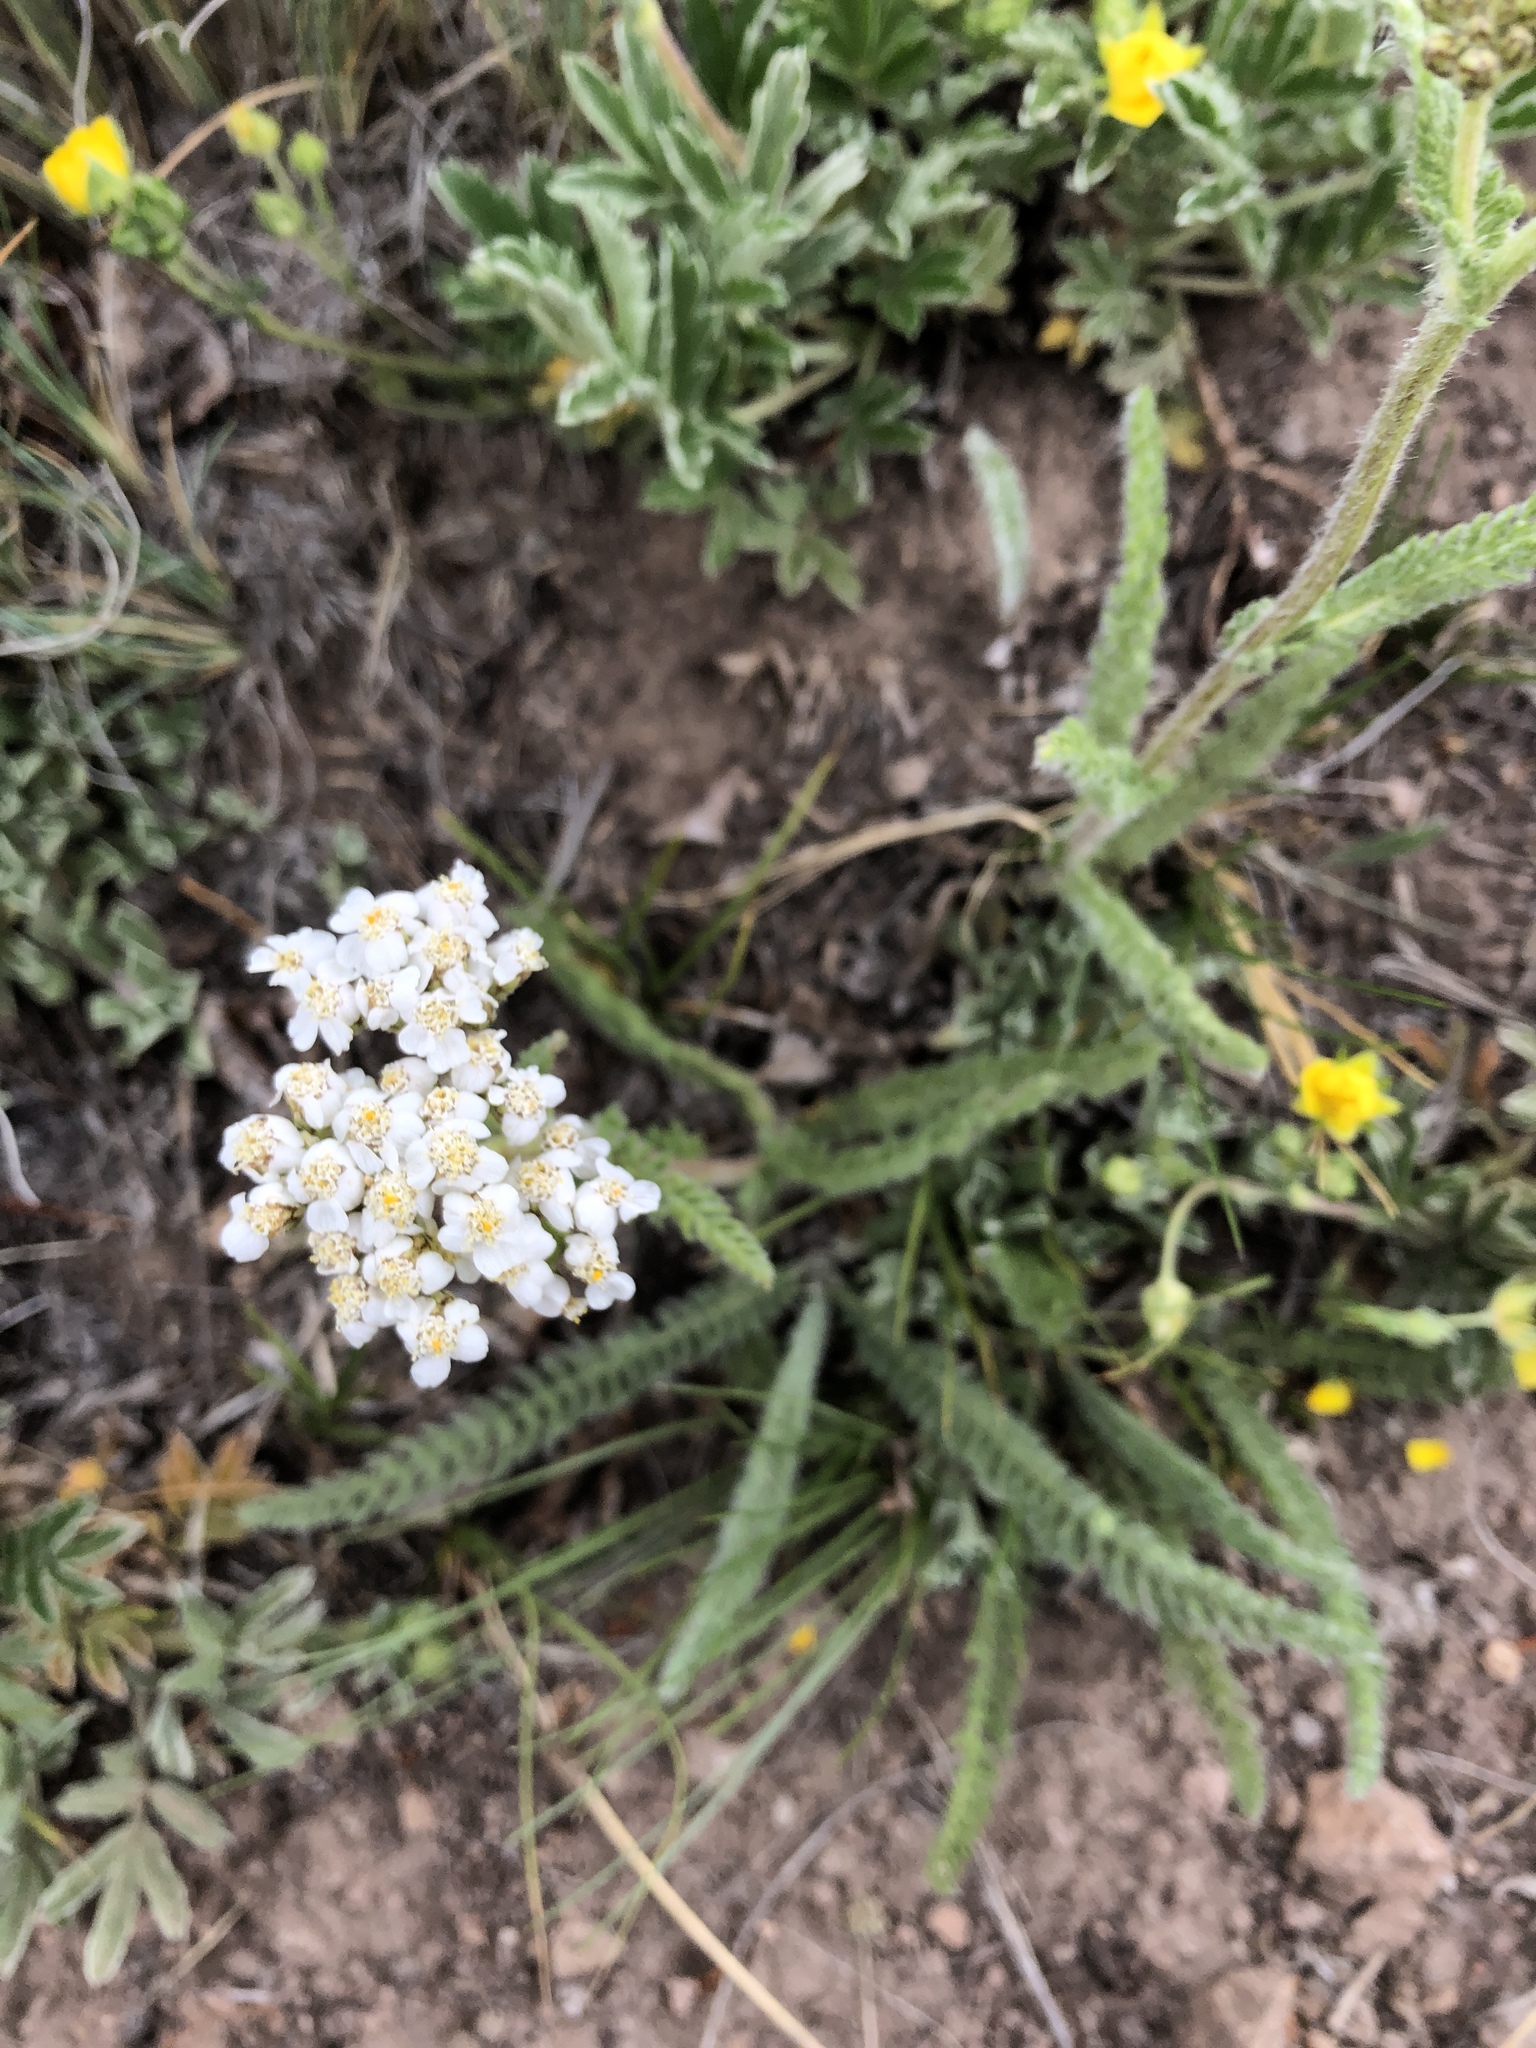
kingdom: Plantae
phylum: Tracheophyta
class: Magnoliopsida
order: Asterales
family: Asteraceae
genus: Achillea
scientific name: Achillea millefolium
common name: Yarrow
